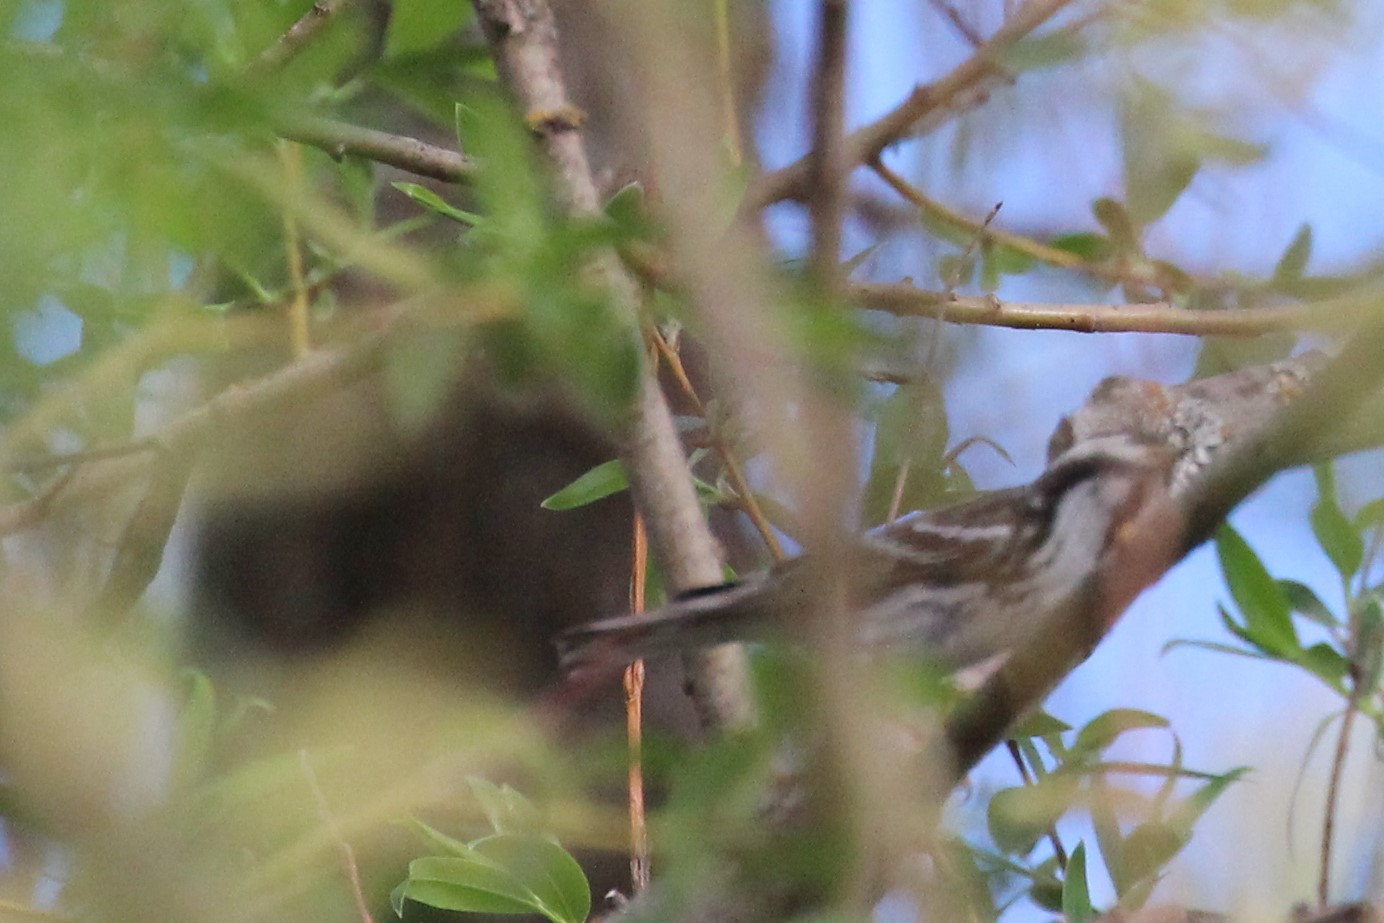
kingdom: Animalia
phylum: Chordata
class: Aves
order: Passeriformes
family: Parulidae
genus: Setophaga
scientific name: Setophaga striata
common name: Blackpoll warbler
